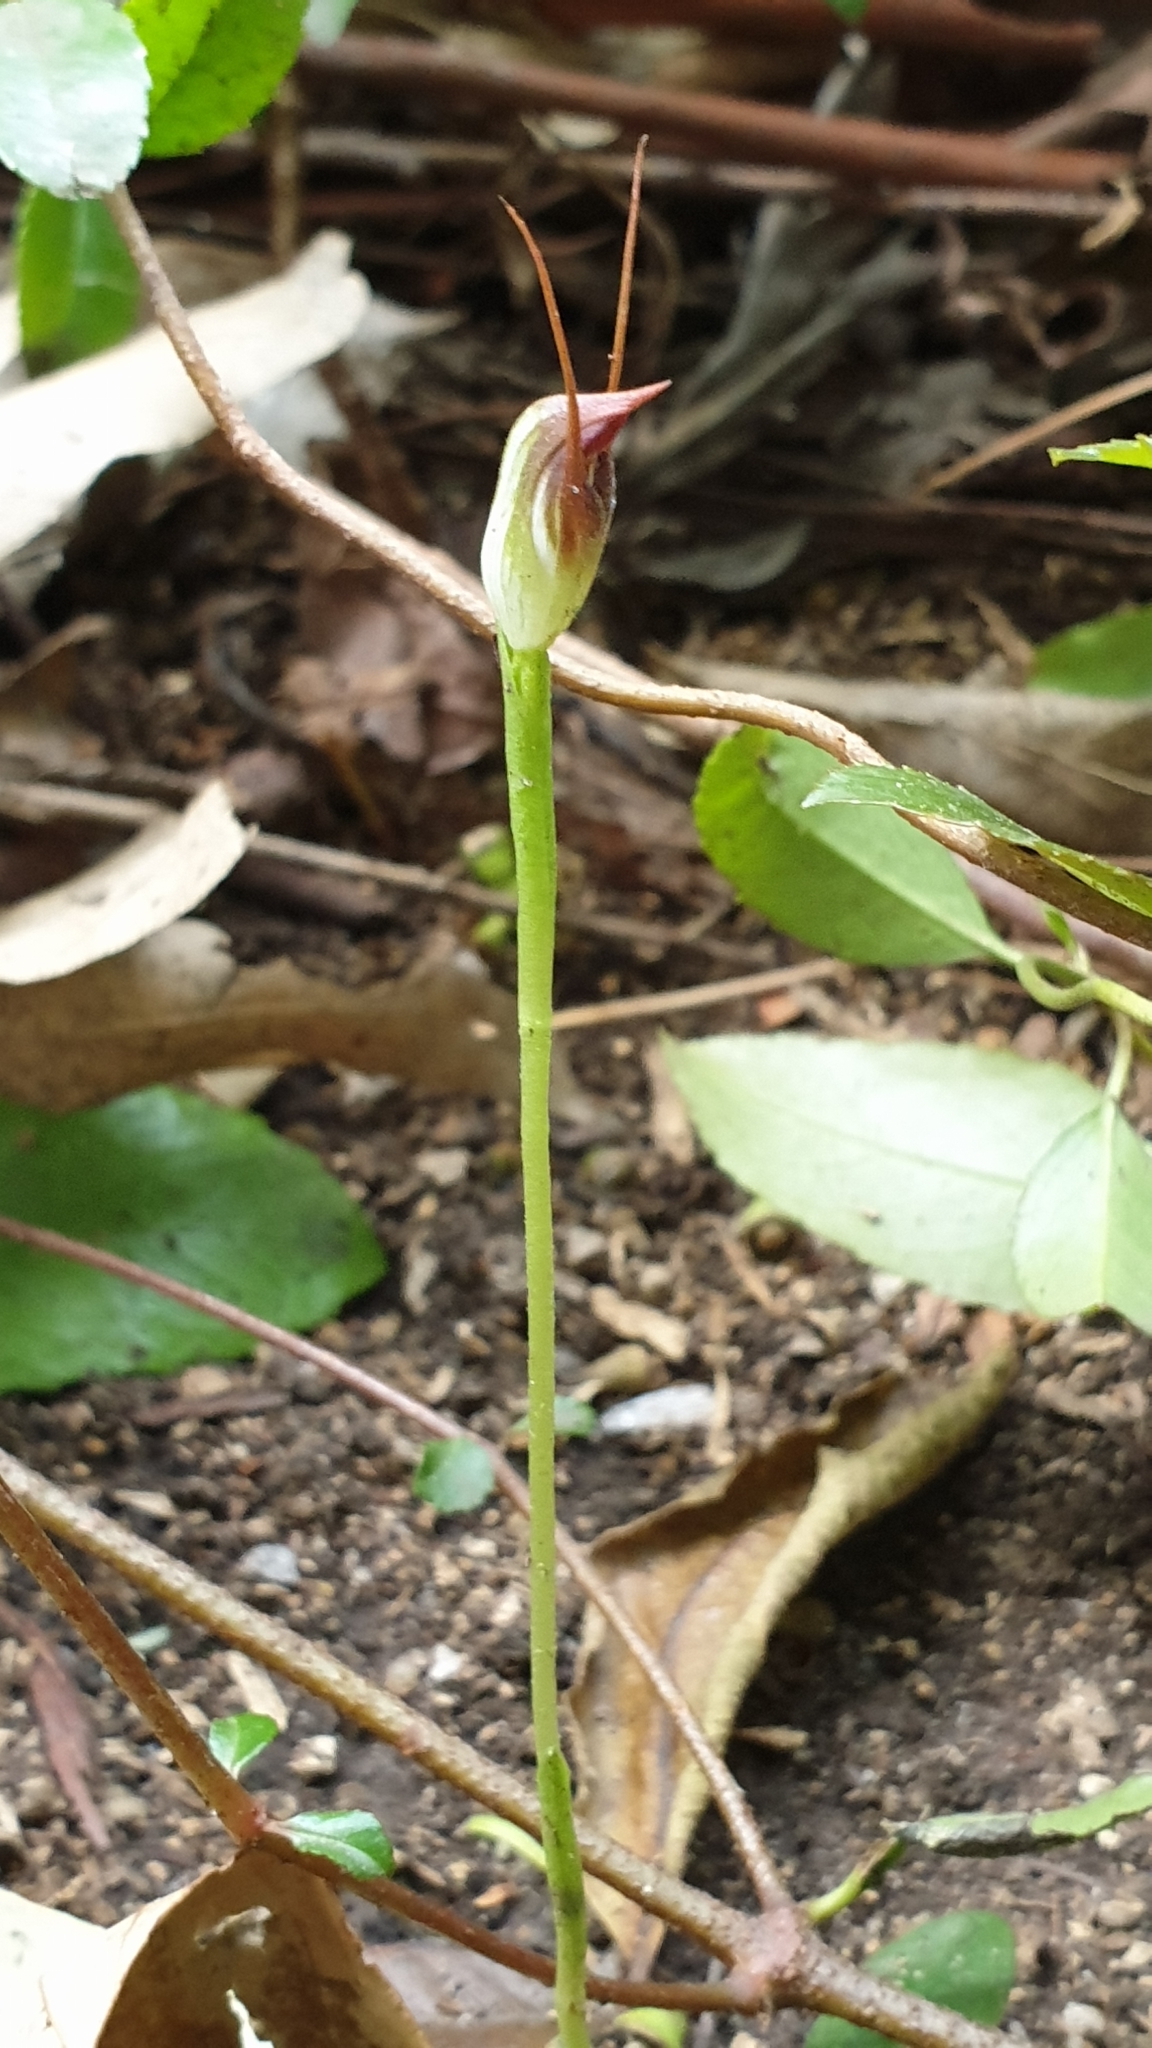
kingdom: Plantae
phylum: Tracheophyta
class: Liliopsida
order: Asparagales
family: Orchidaceae
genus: Pterostylis
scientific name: Pterostylis pedunculata
